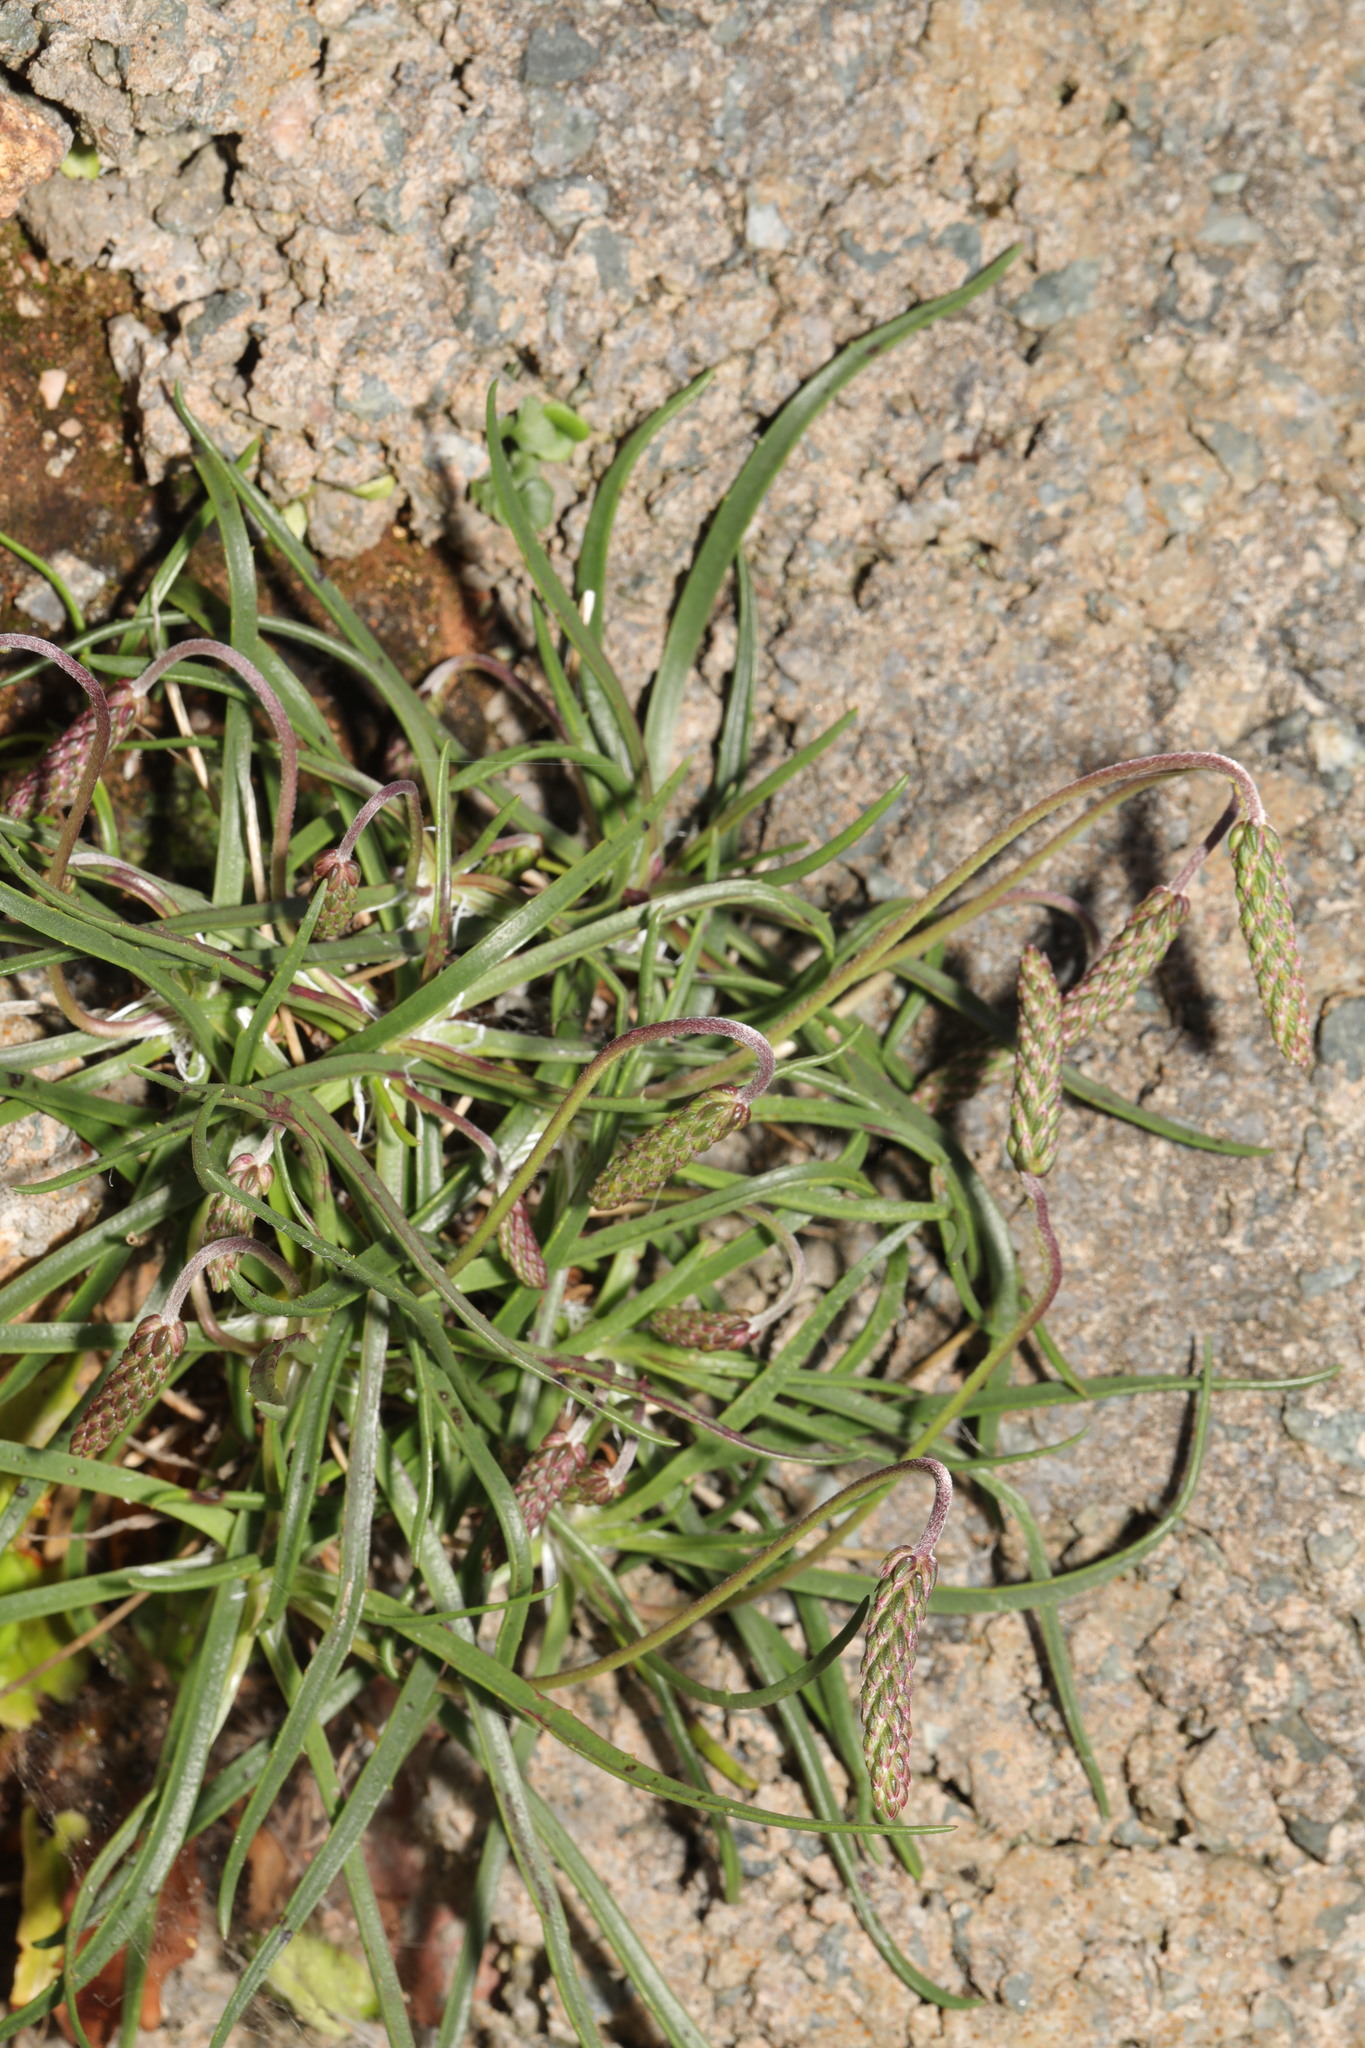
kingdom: Plantae
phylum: Tracheophyta
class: Magnoliopsida
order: Lamiales
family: Plantaginaceae
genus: Plantago
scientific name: Plantago maritima
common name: Sea plantain
